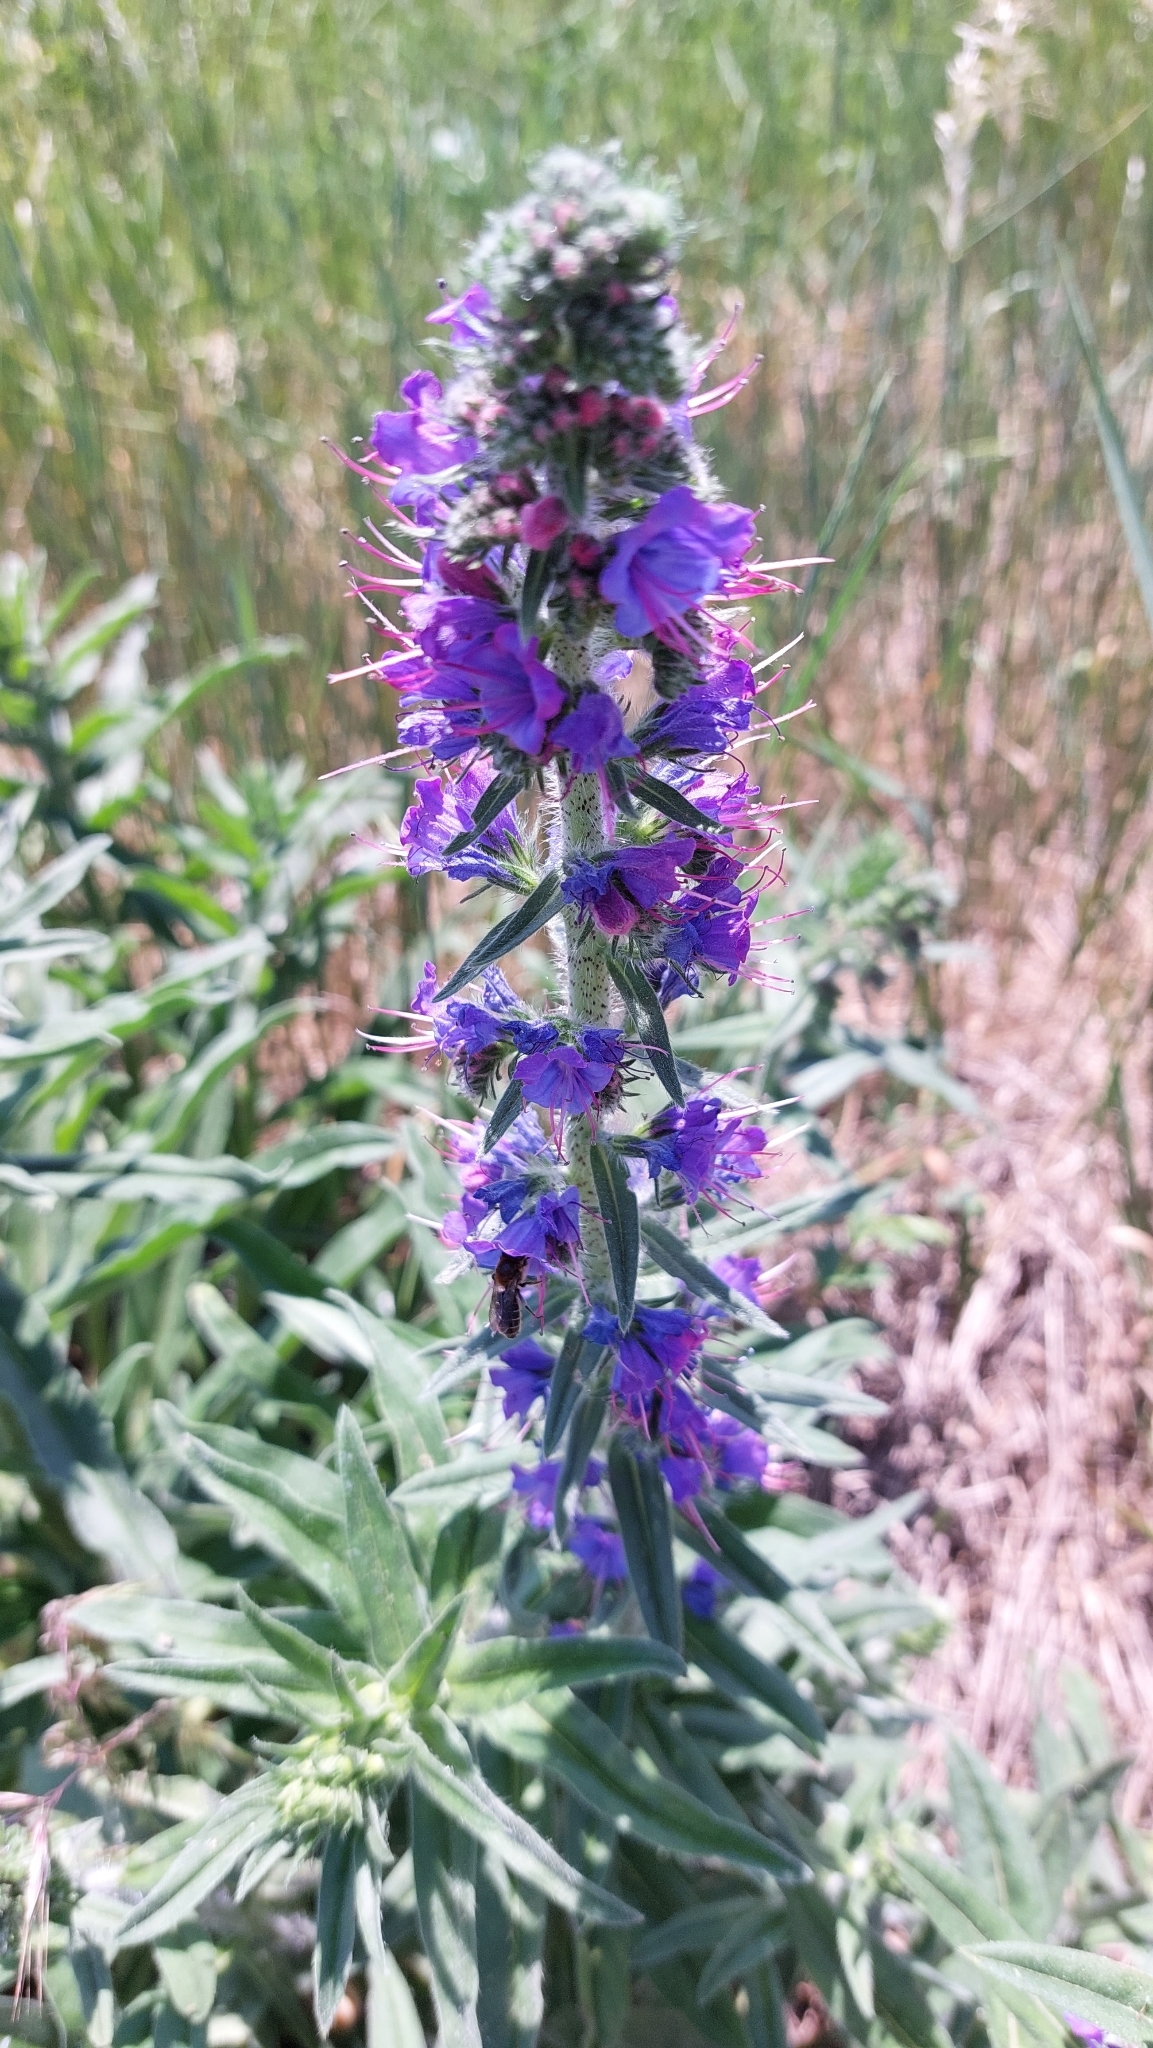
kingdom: Plantae
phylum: Tracheophyta
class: Magnoliopsida
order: Boraginales
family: Boraginaceae
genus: Echium
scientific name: Echium vulgare
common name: Common viper's bugloss
